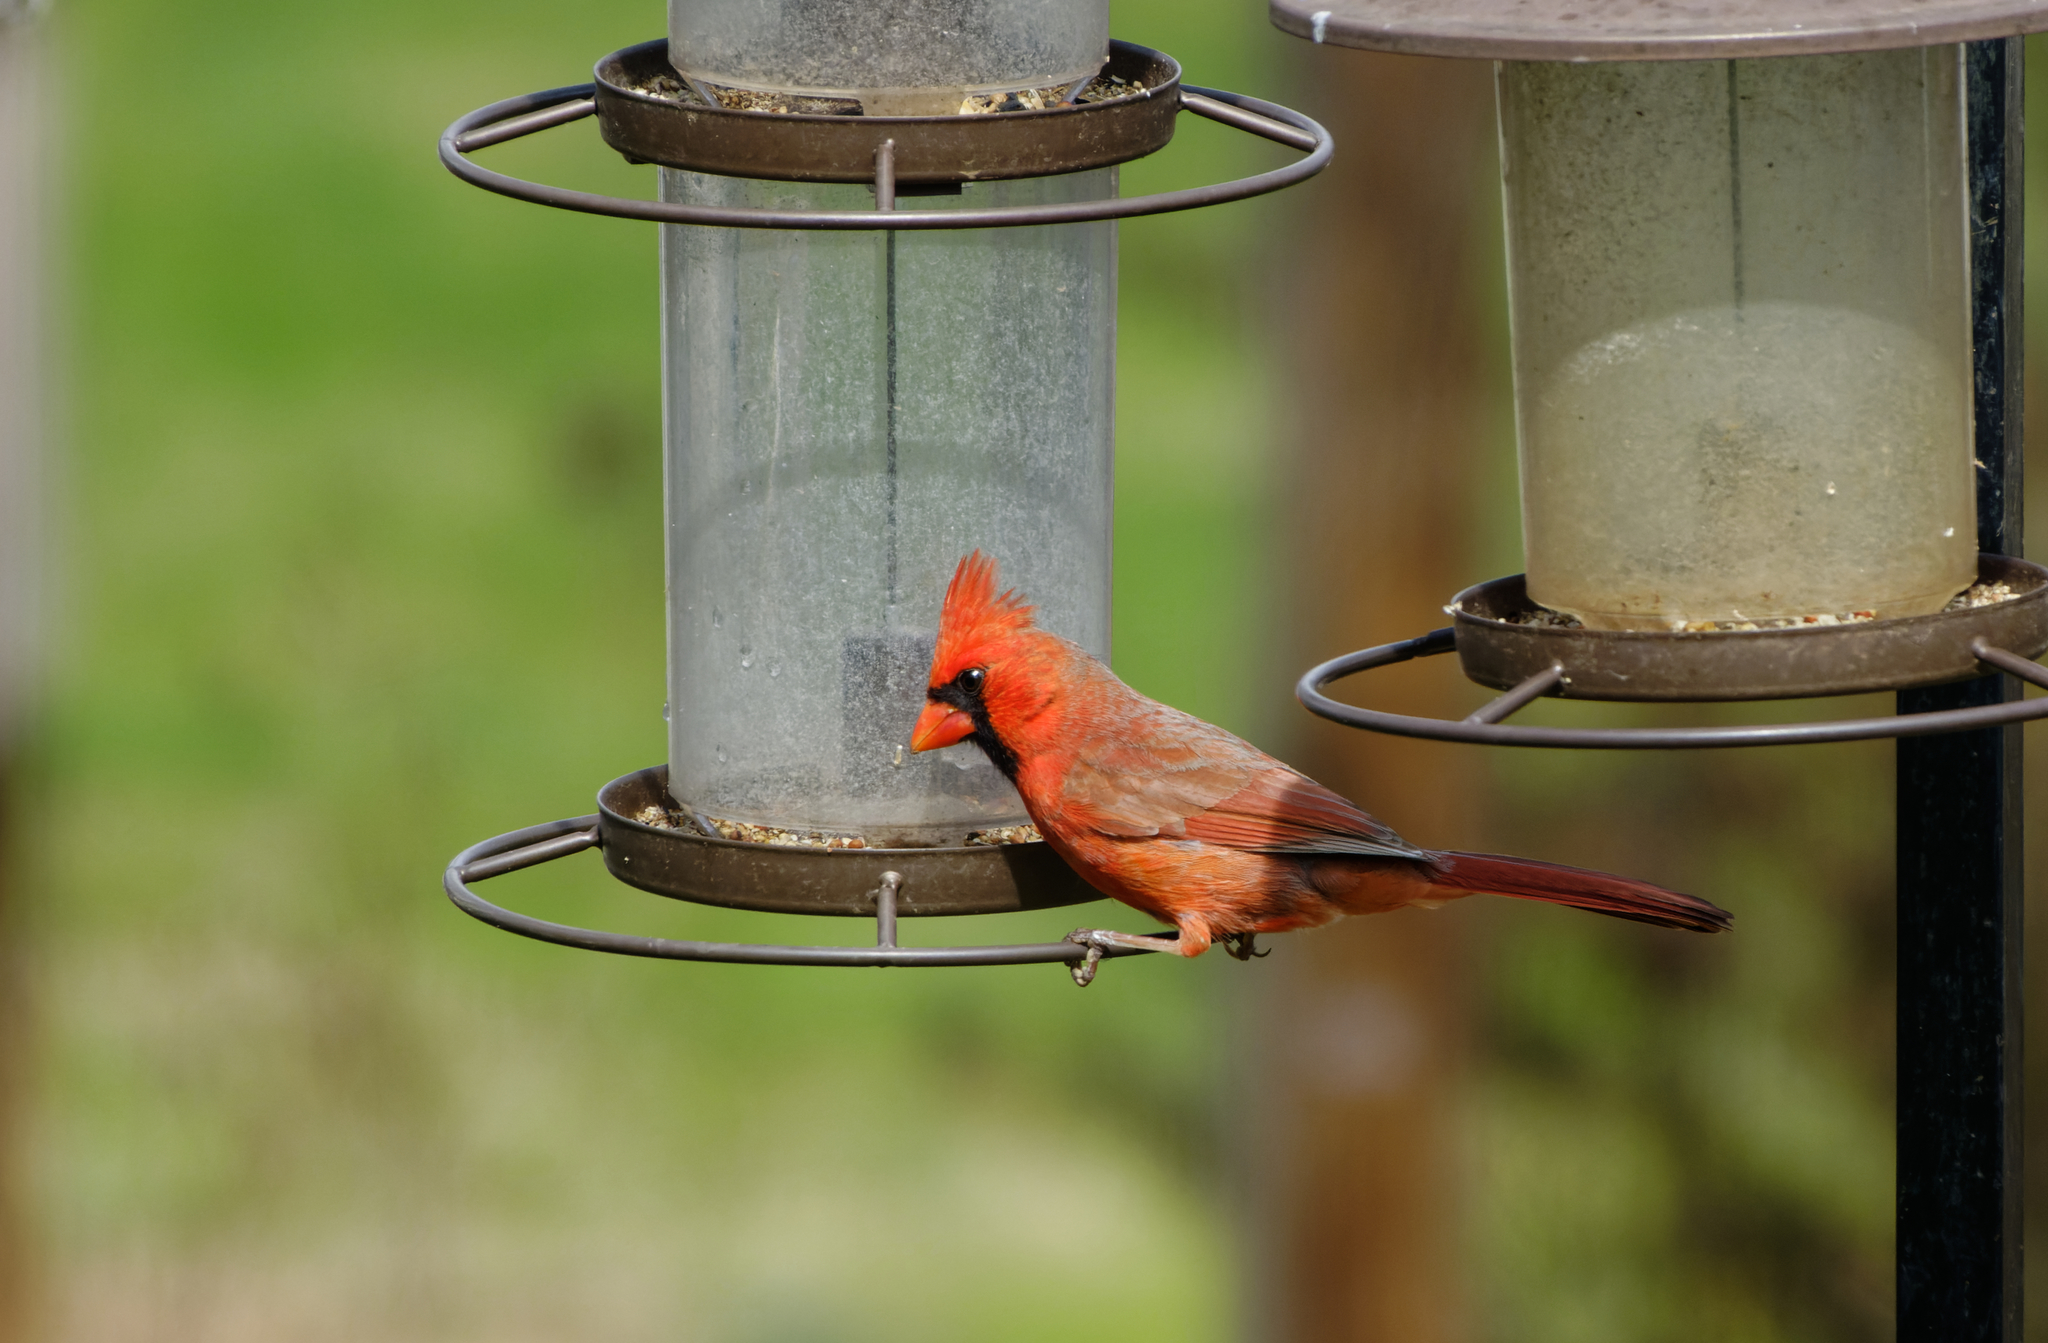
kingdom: Animalia
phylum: Chordata
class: Aves
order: Passeriformes
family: Cardinalidae
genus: Cardinalis
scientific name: Cardinalis cardinalis
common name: Northern cardinal
